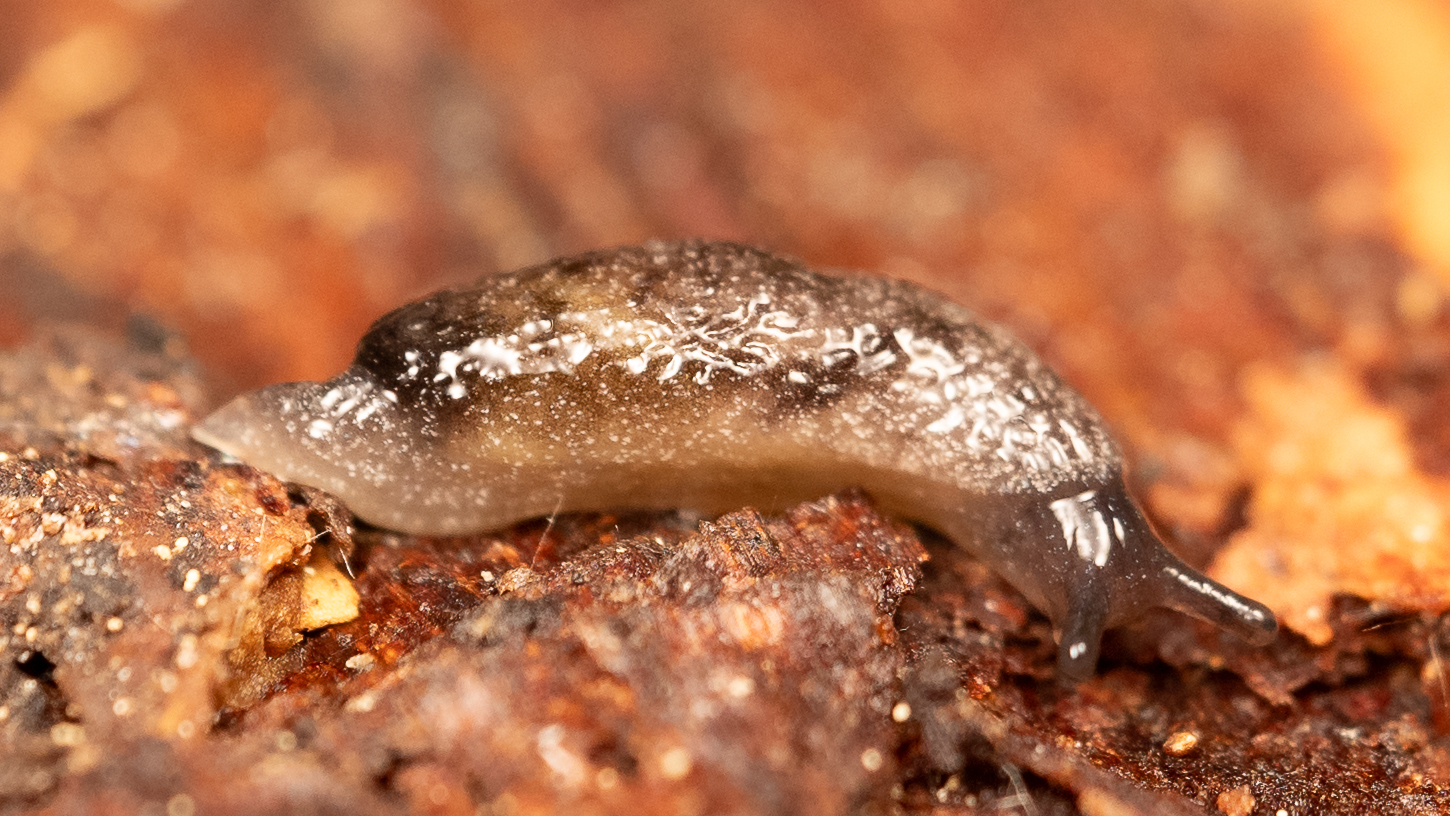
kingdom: Animalia
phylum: Mollusca
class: Gastropoda
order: Stylommatophora
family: Arionidae
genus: Securicauda
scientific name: Securicauda hermani
